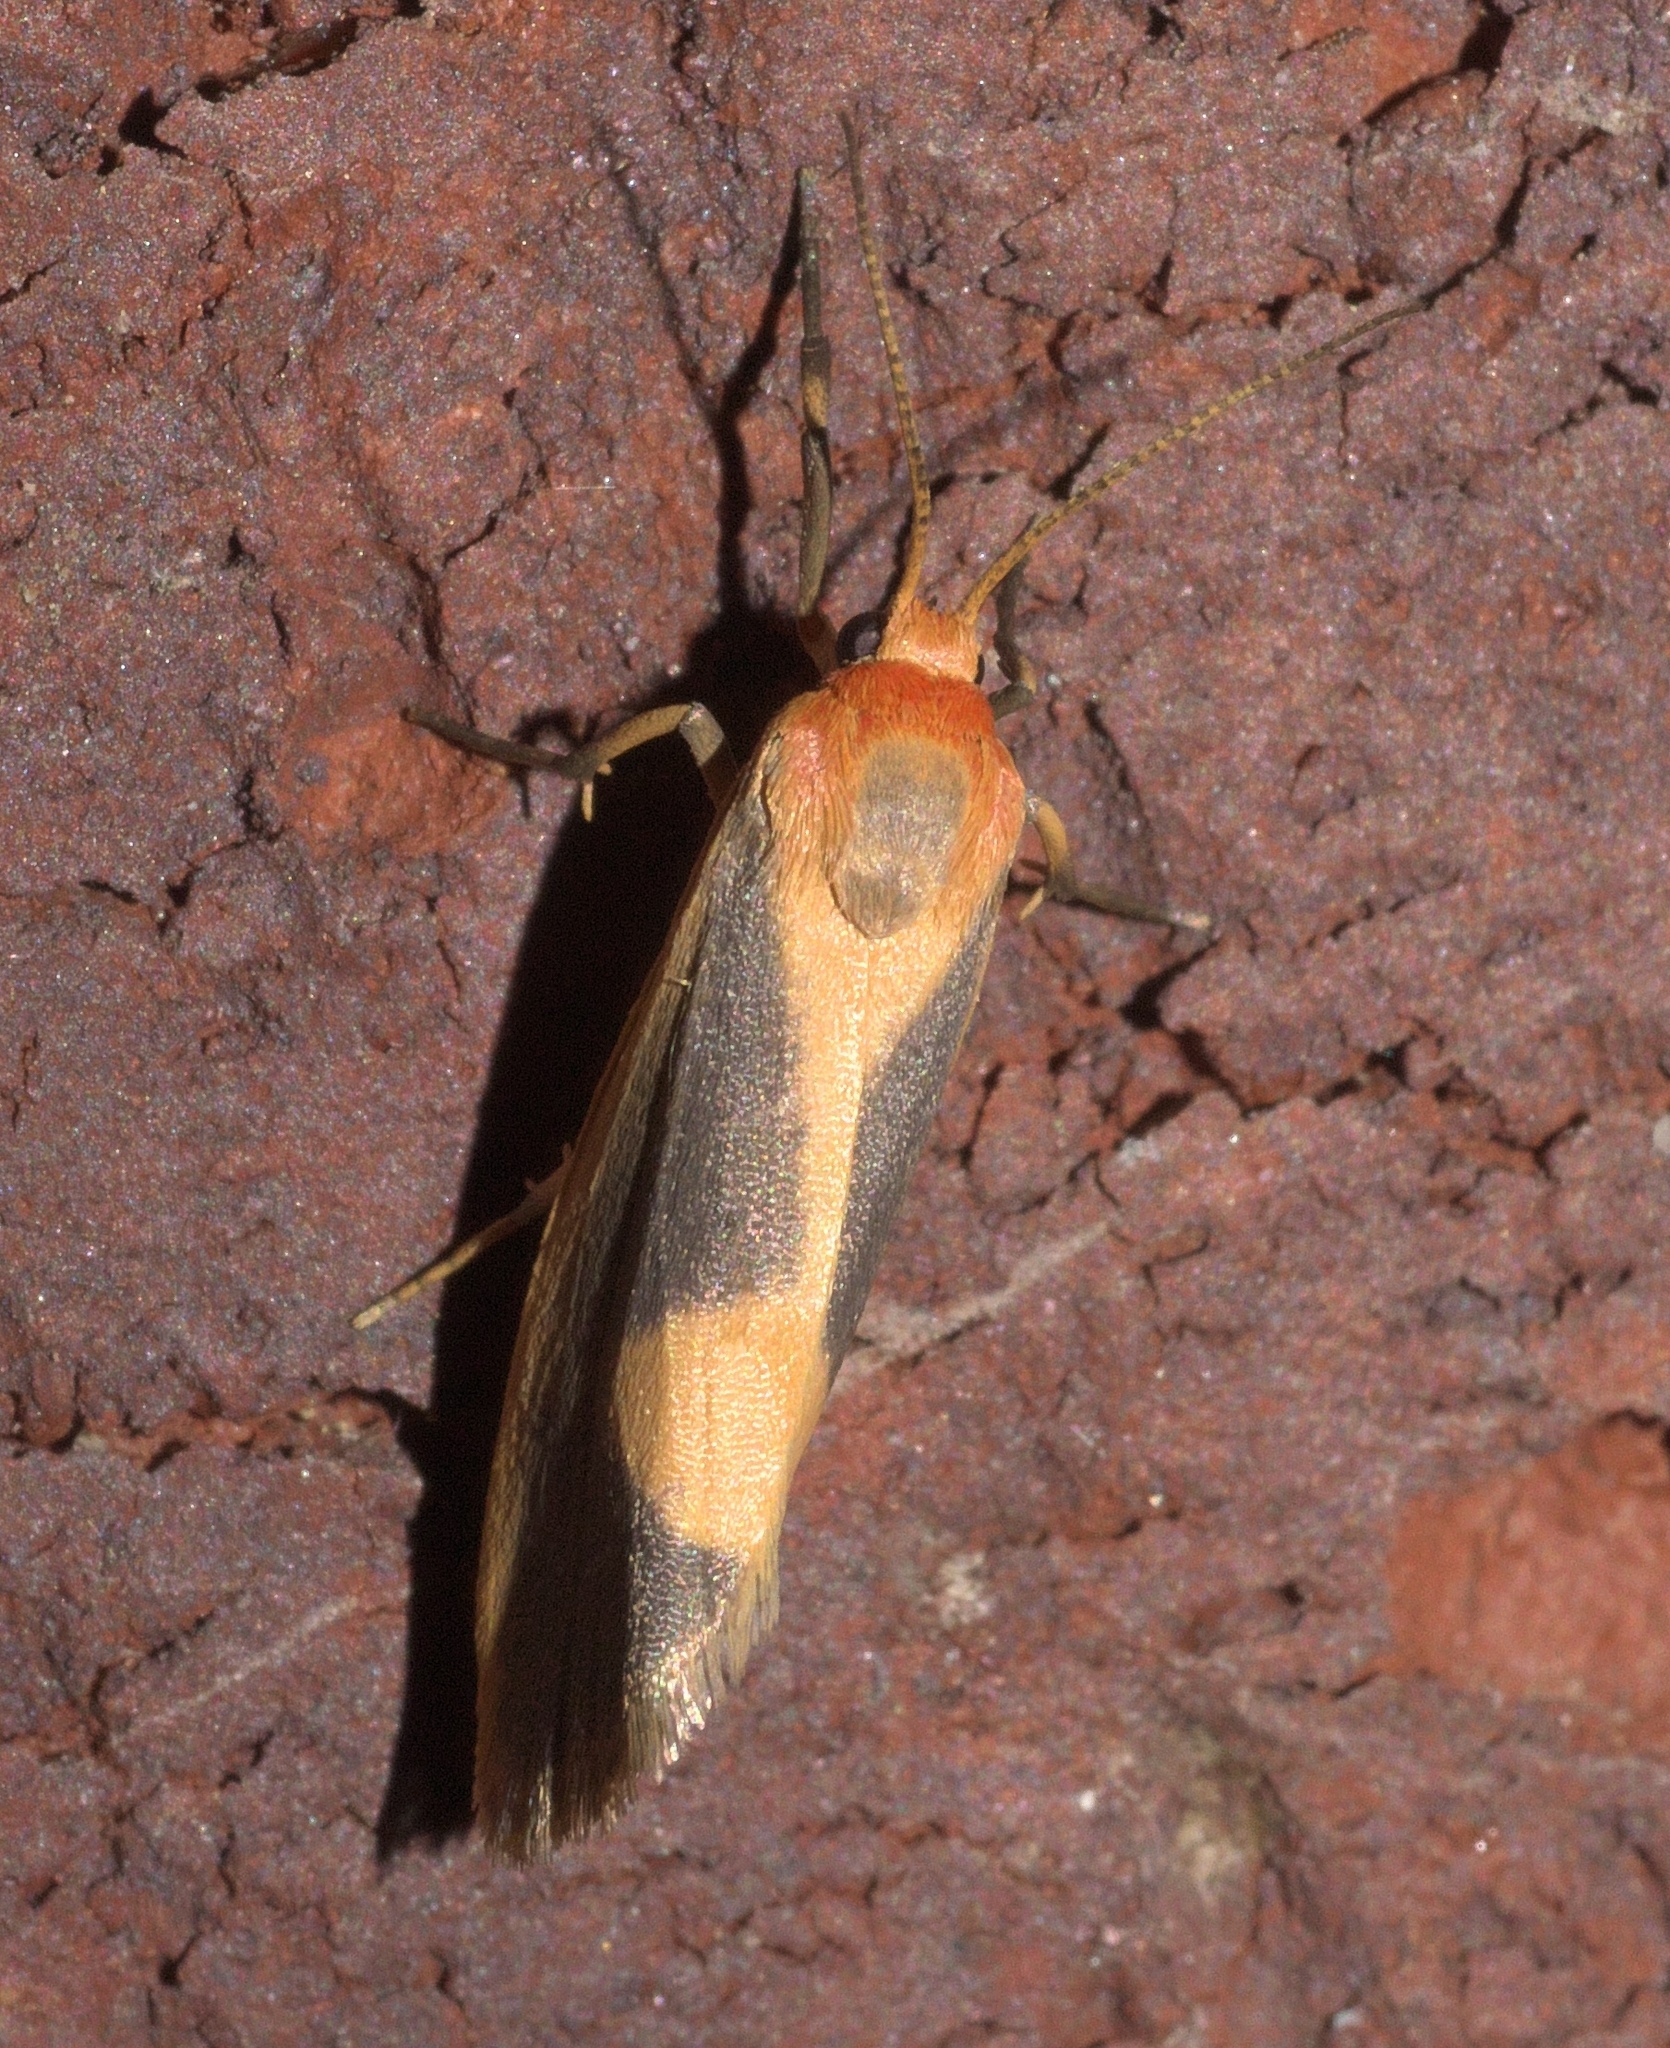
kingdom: Animalia
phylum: Arthropoda
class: Insecta
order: Lepidoptera
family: Erebidae
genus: Cisthene
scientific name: Cisthene plumbea
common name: Lead colored lichen moth
